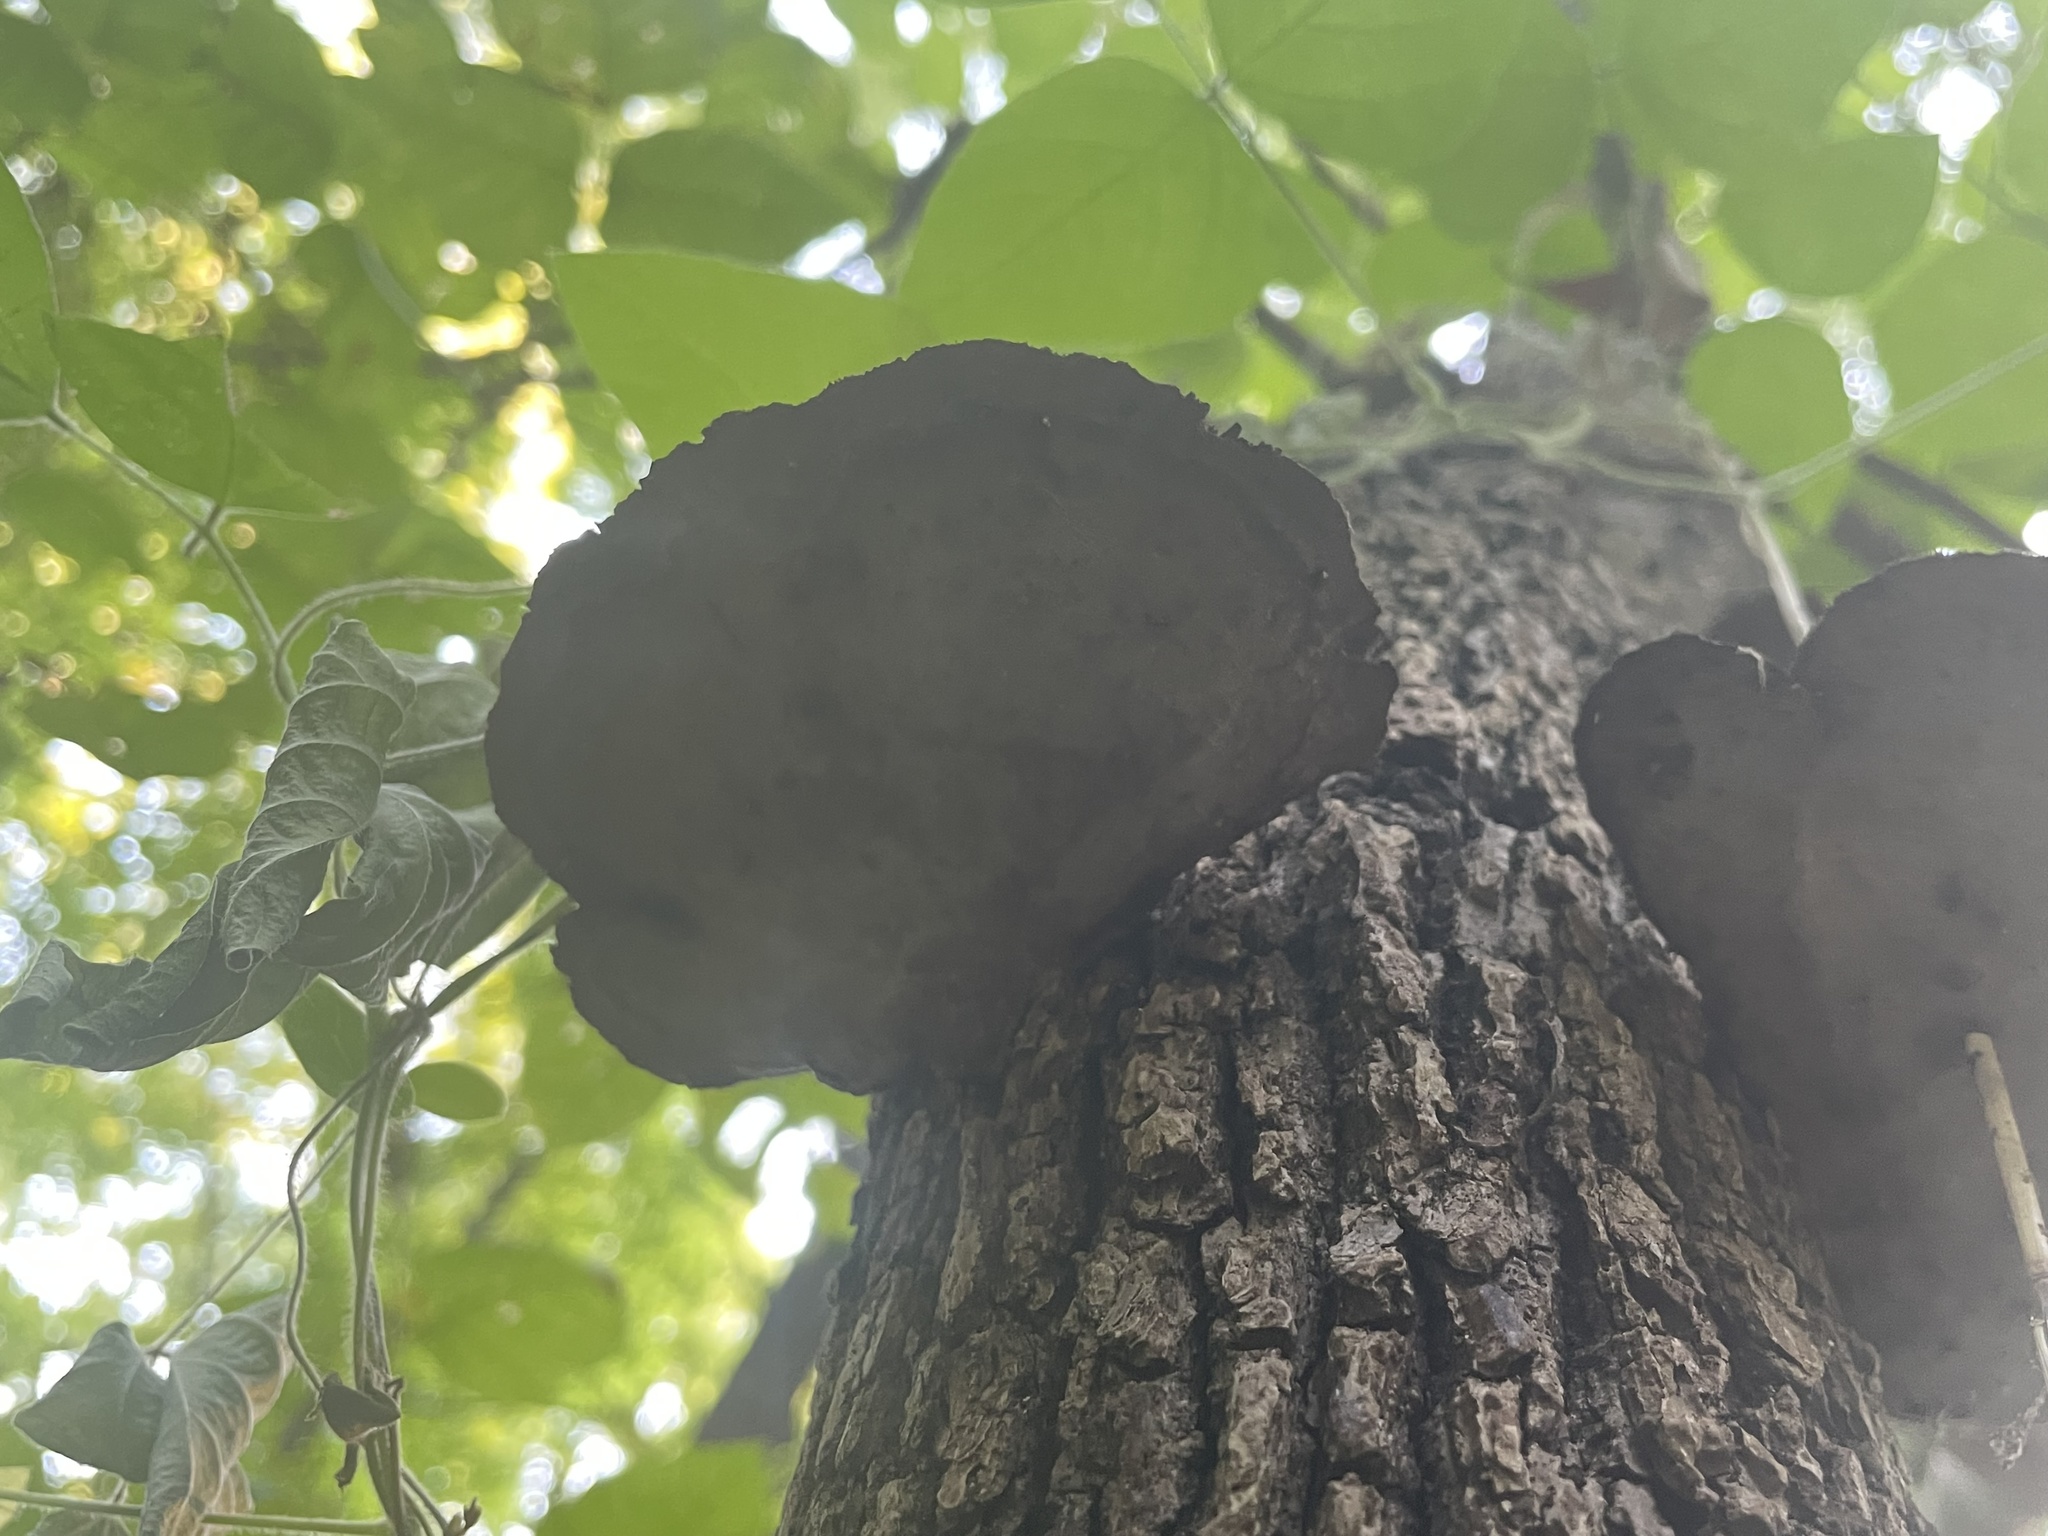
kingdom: Fungi
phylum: Basidiomycota
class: Agaricomycetes
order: Polyporales
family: Cerrenaceae
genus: Cerrena
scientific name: Cerrena hydnoides
